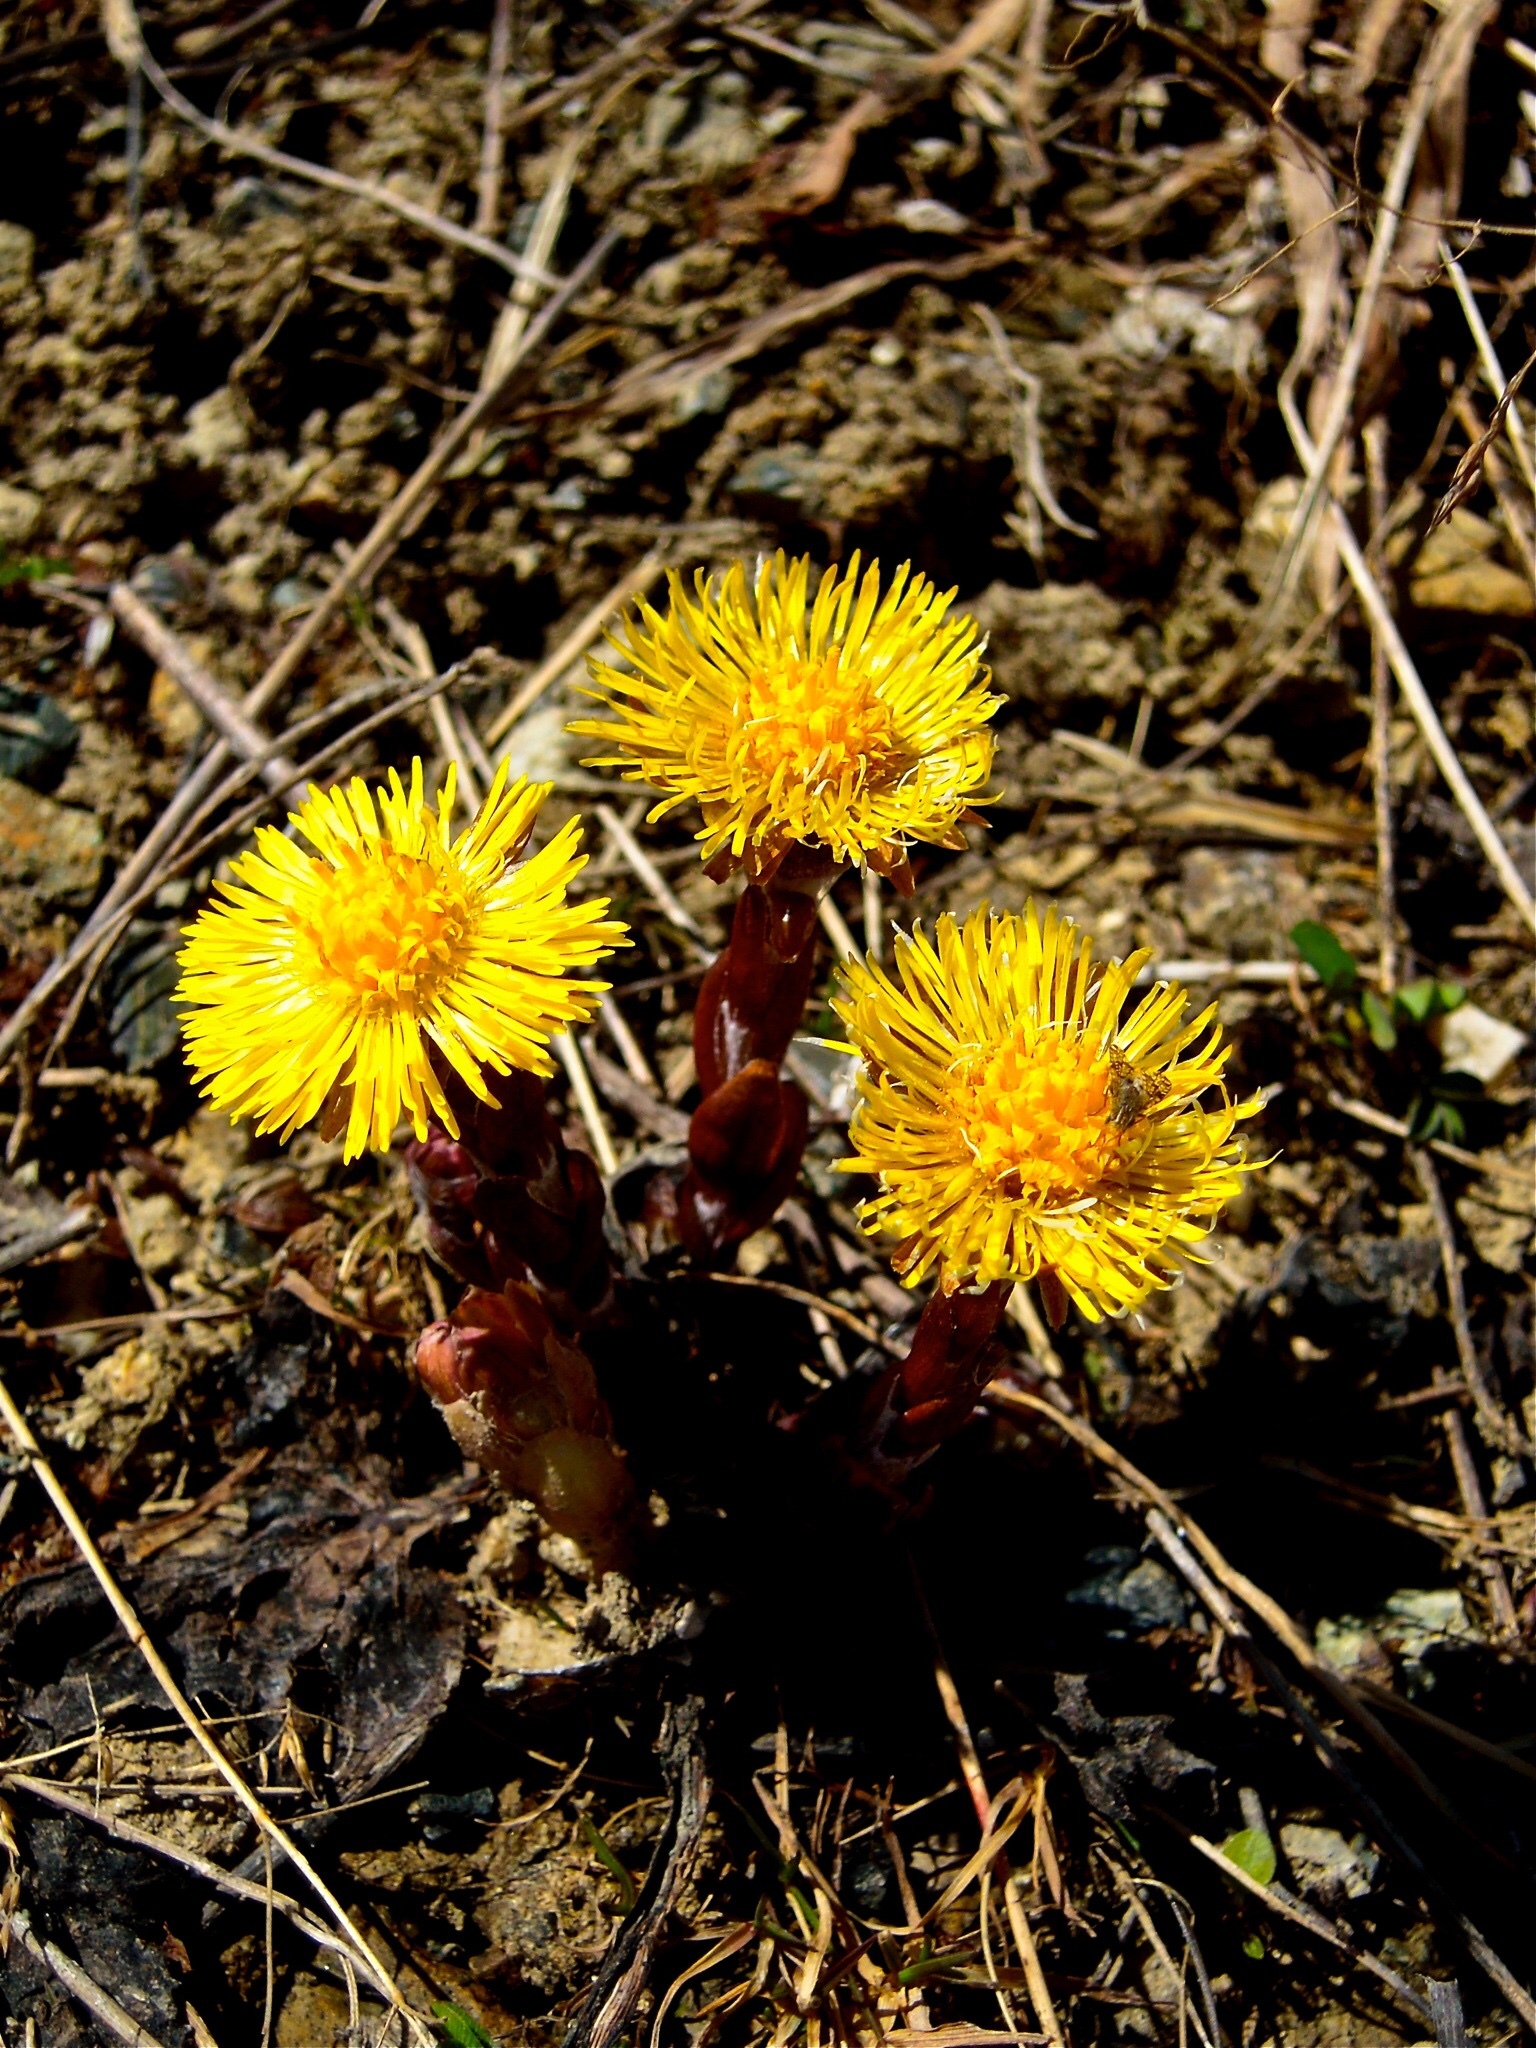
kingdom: Plantae
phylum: Tracheophyta
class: Magnoliopsida
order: Asterales
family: Asteraceae
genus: Tussilago
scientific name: Tussilago farfara
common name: Coltsfoot
